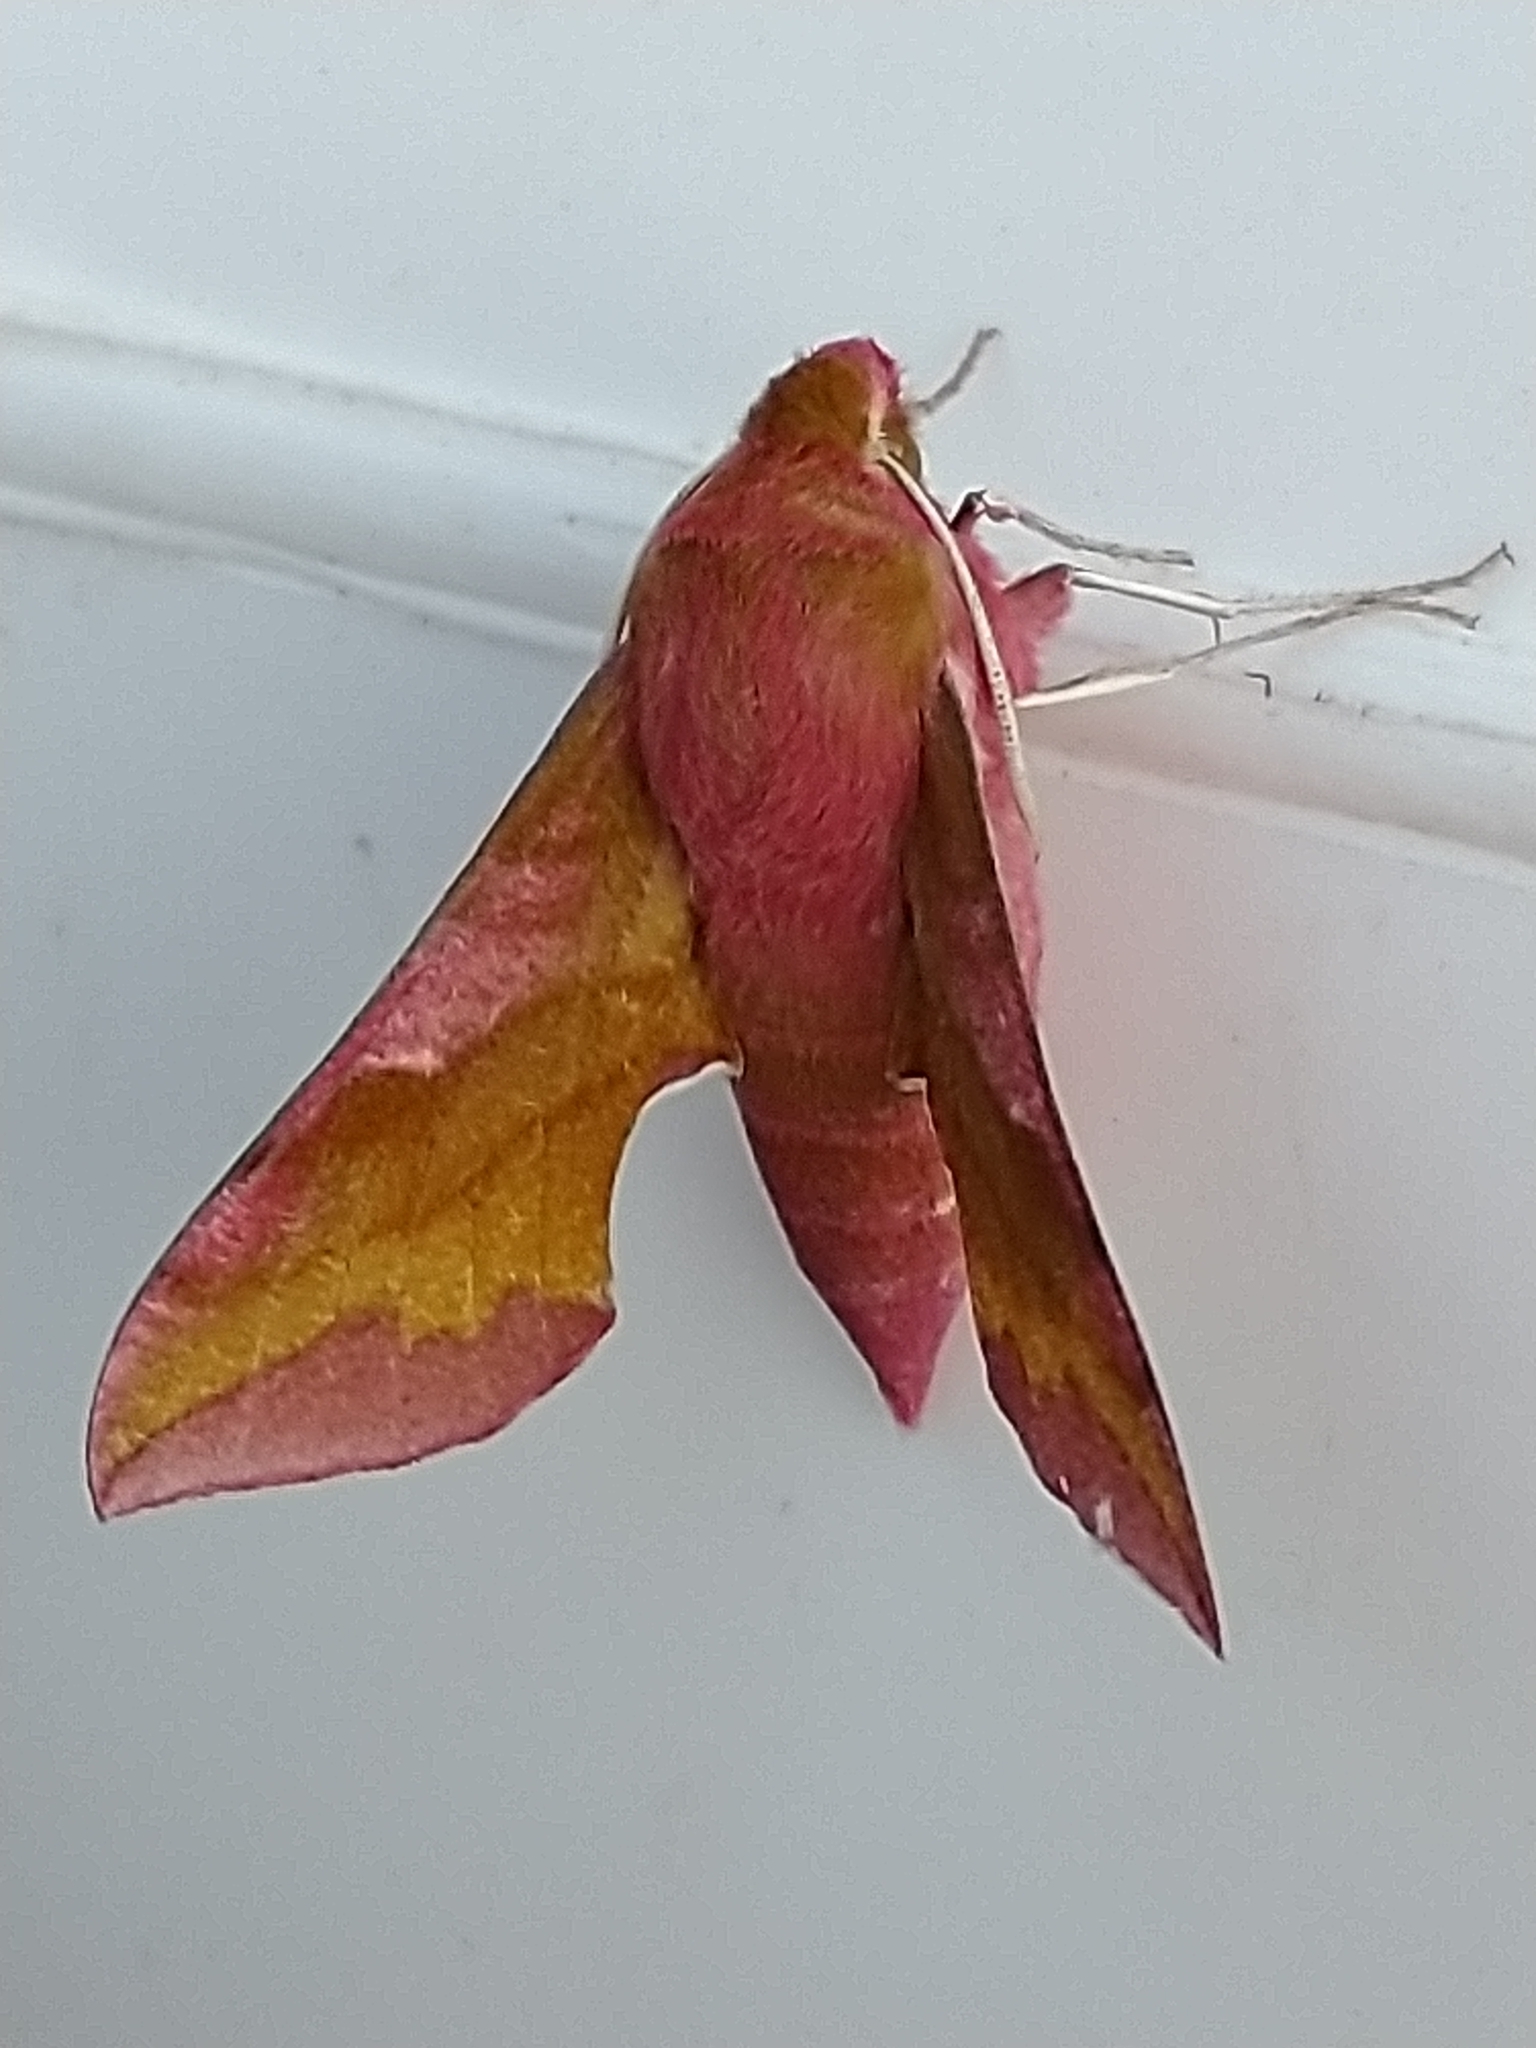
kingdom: Animalia
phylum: Arthropoda
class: Insecta
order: Lepidoptera
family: Sphingidae
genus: Deilephila
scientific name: Deilephila porcellus
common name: Small elephant hawk-moth
